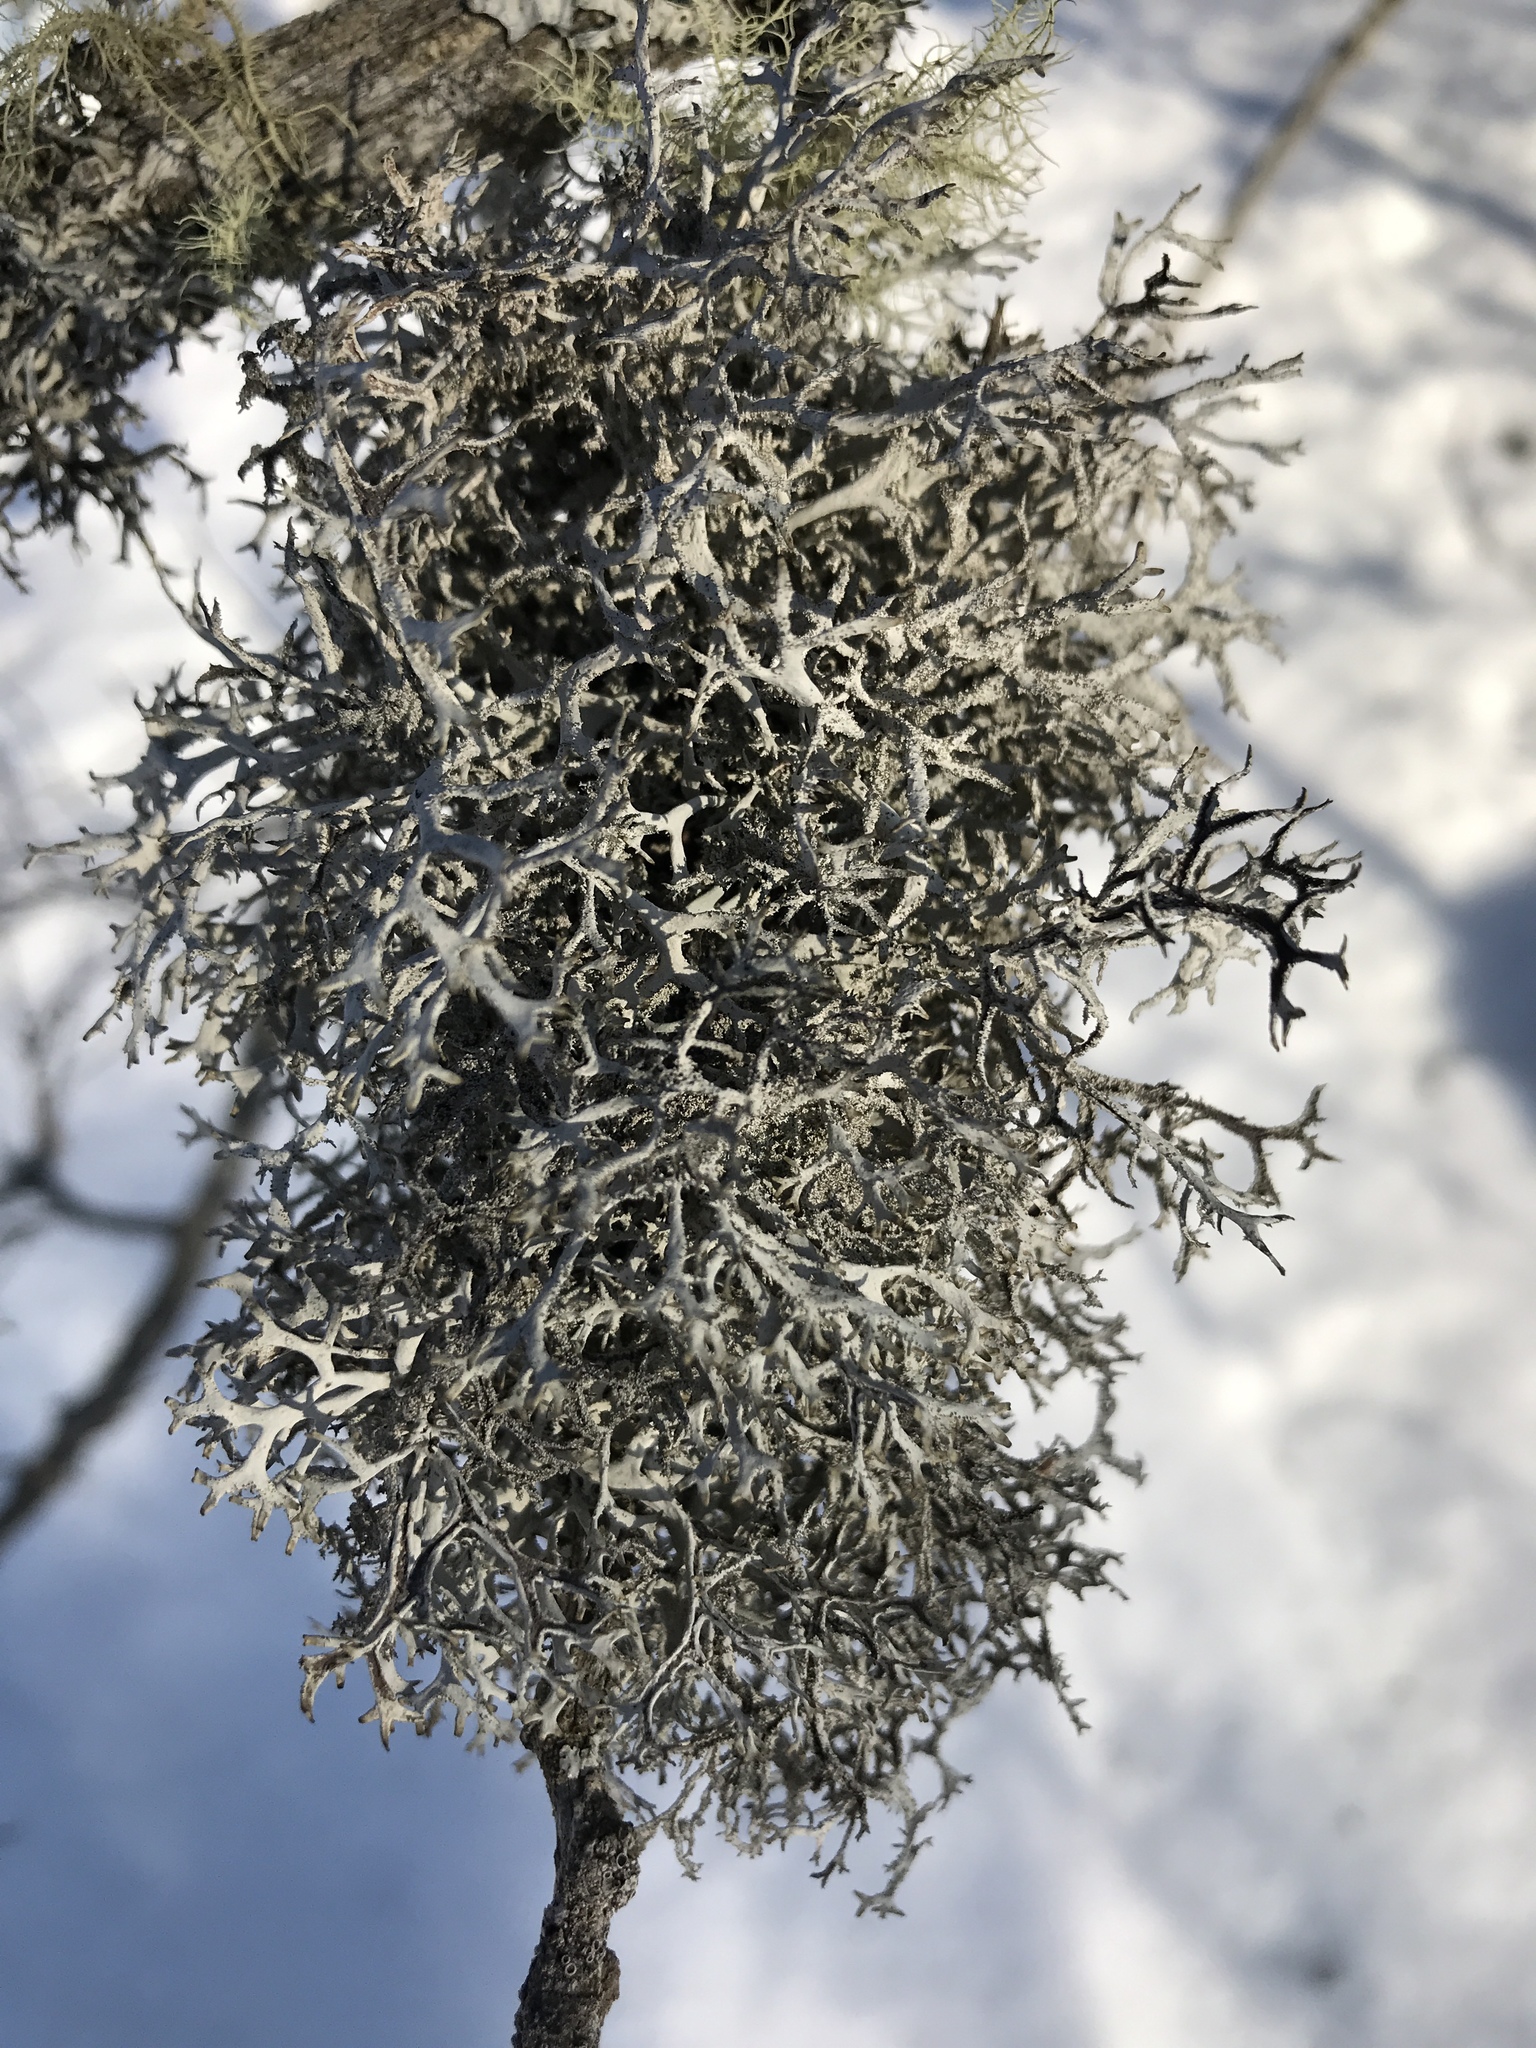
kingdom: Fungi
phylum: Ascomycota
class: Lecanoromycetes
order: Lecanorales
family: Parmeliaceae
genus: Pseudevernia
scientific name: Pseudevernia consocians
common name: Common antler lichen
